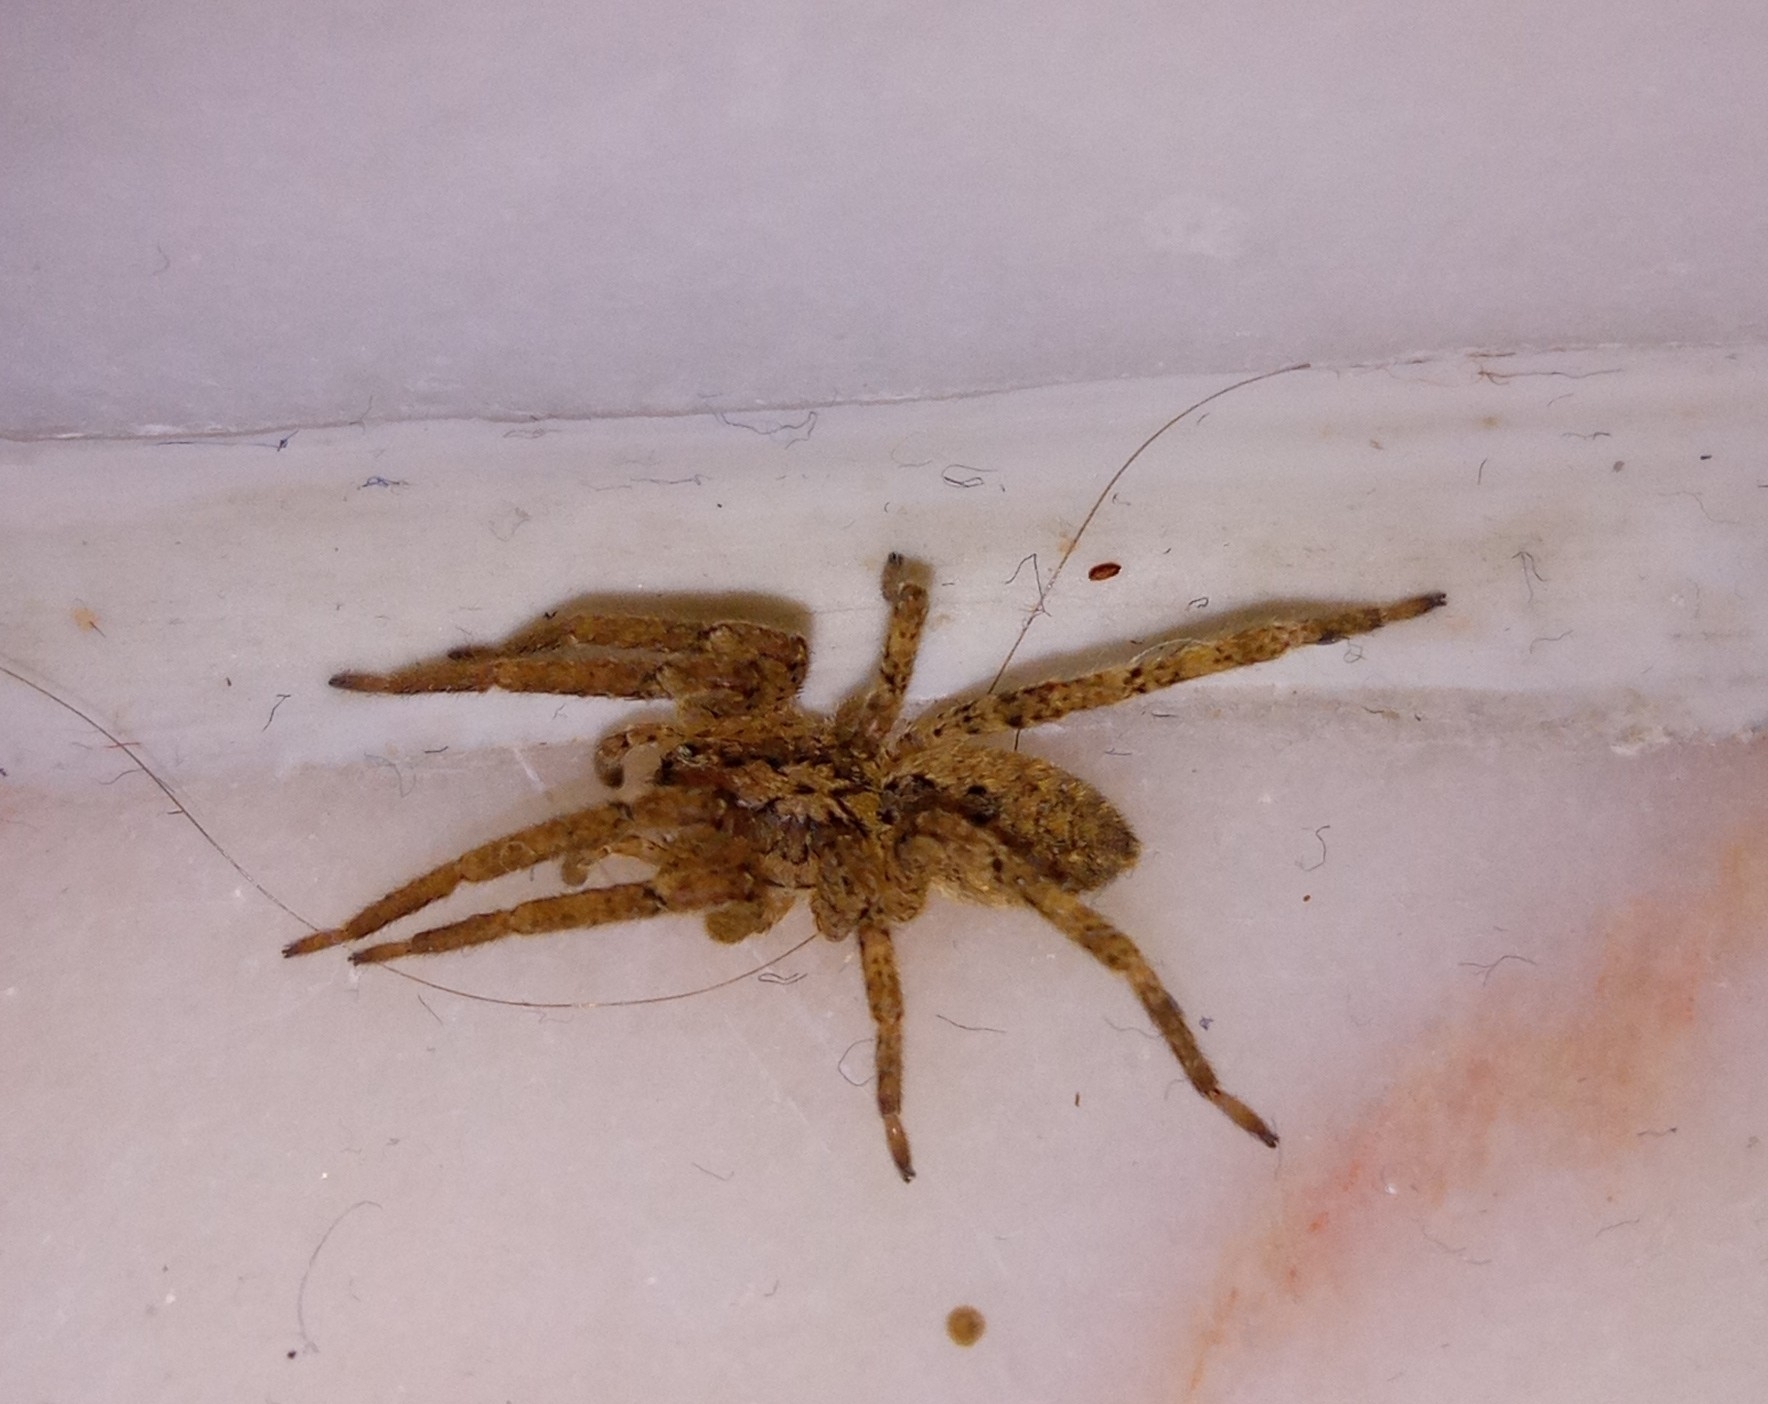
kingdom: Animalia
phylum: Arthropoda
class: Arachnida
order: Araneae
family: Zoropsidae
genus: Zoropsis
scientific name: Zoropsis spinimana
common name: Zoropsid spider
